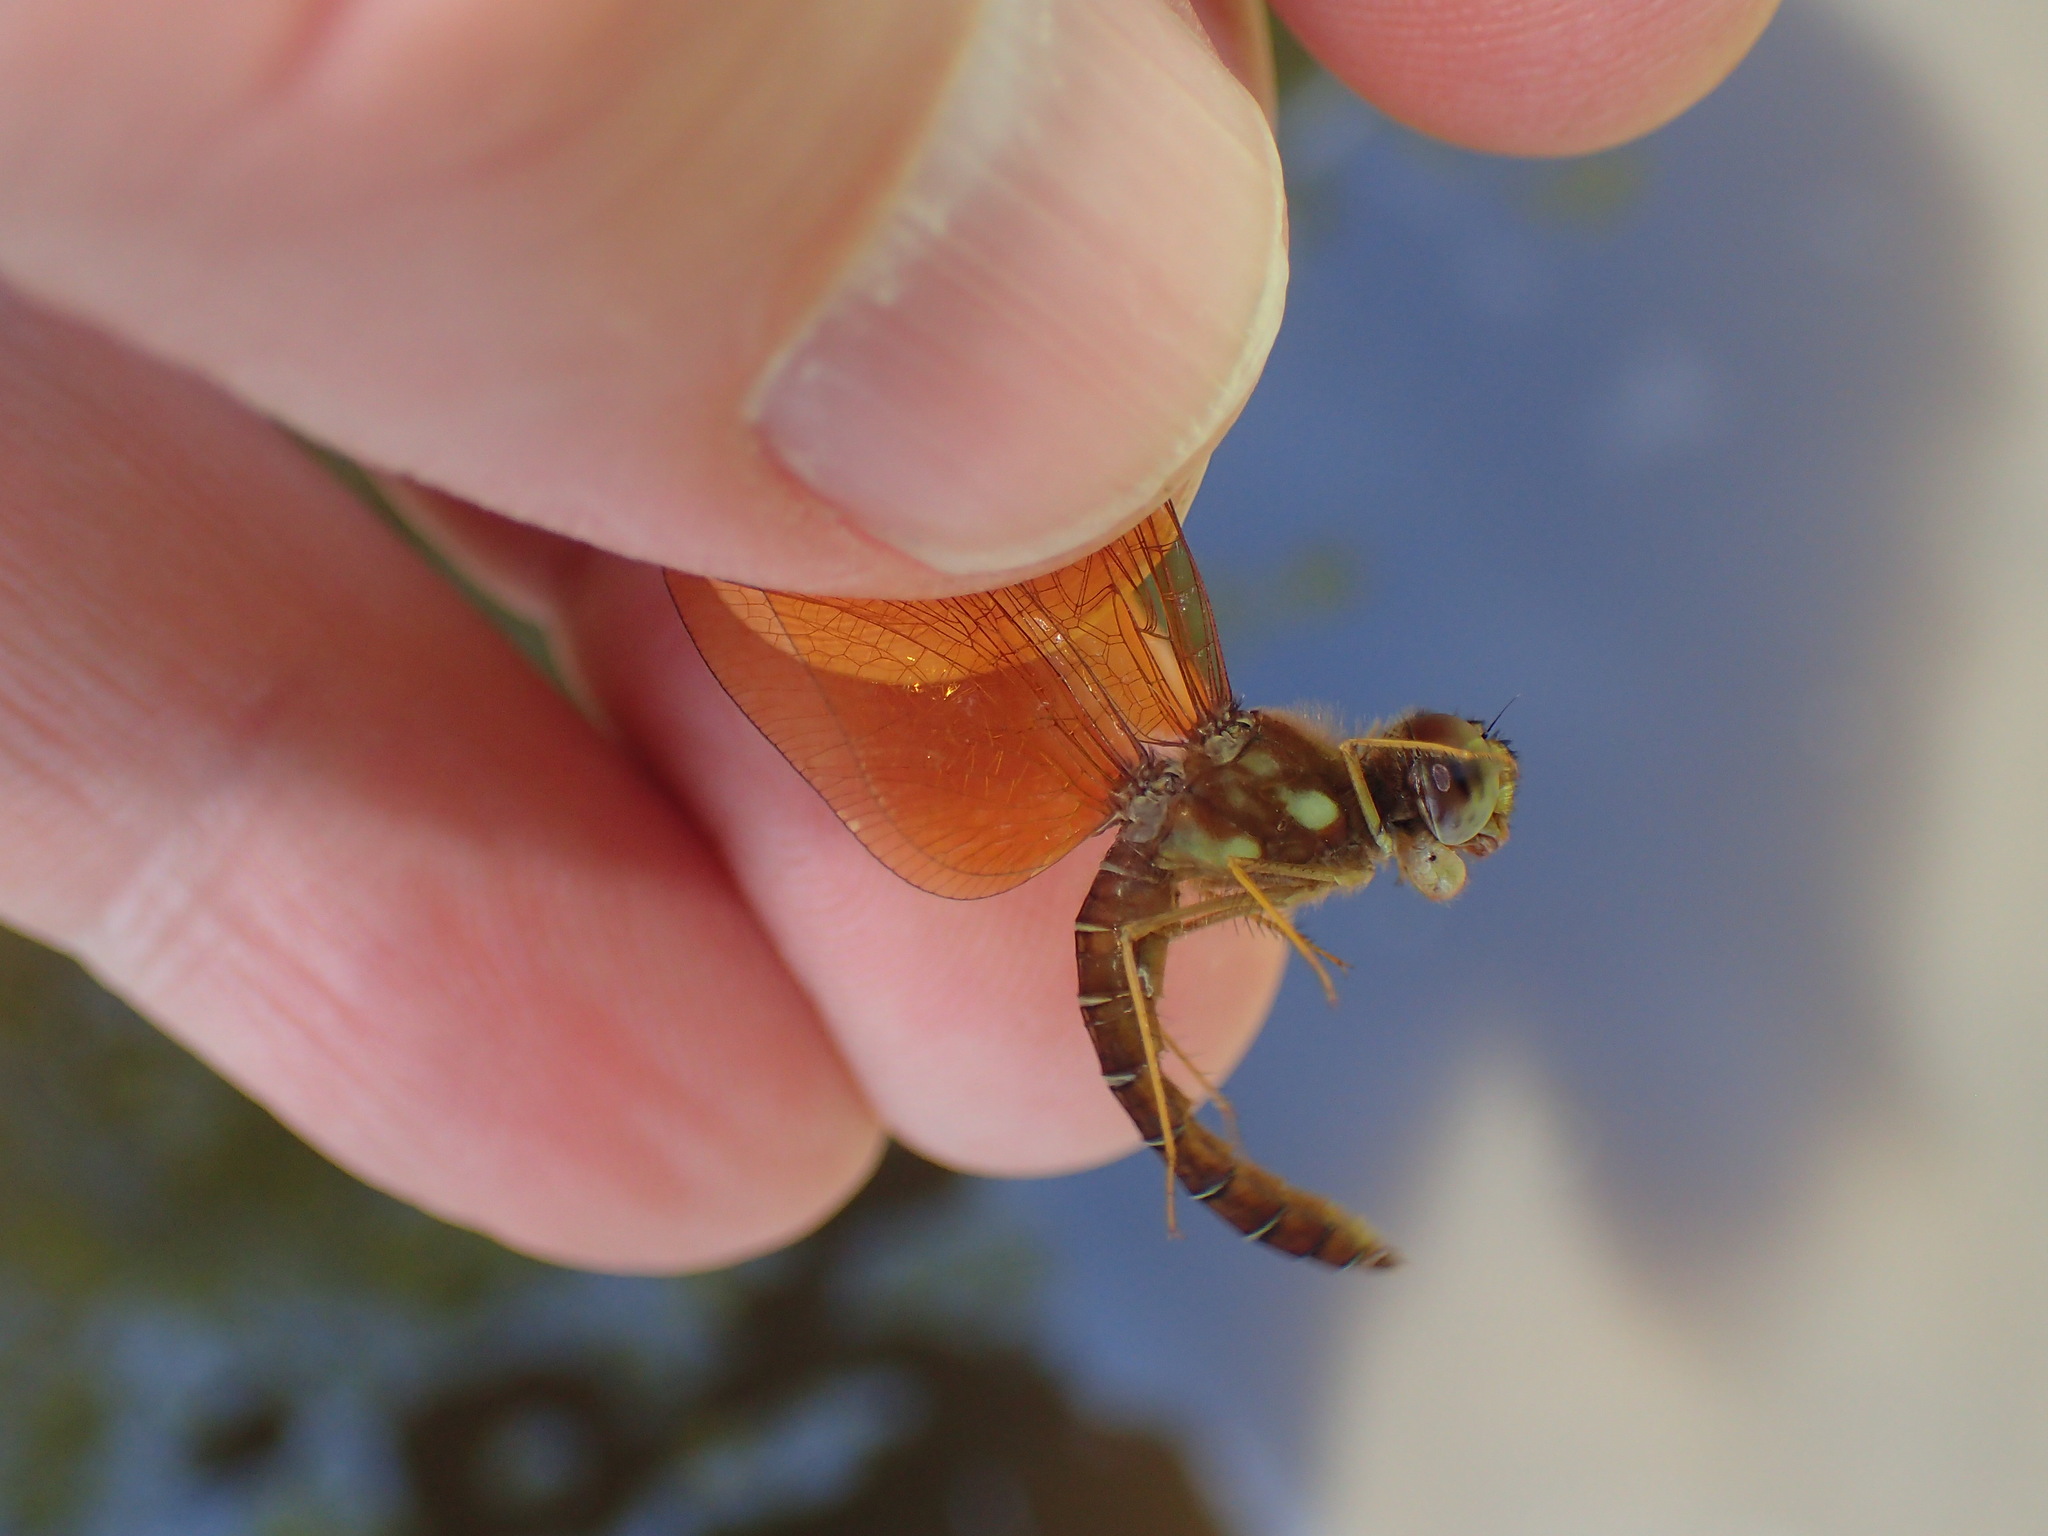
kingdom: Animalia
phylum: Arthropoda
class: Insecta
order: Odonata
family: Libellulidae
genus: Perithemis
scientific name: Perithemis tenera
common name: Eastern amberwing
